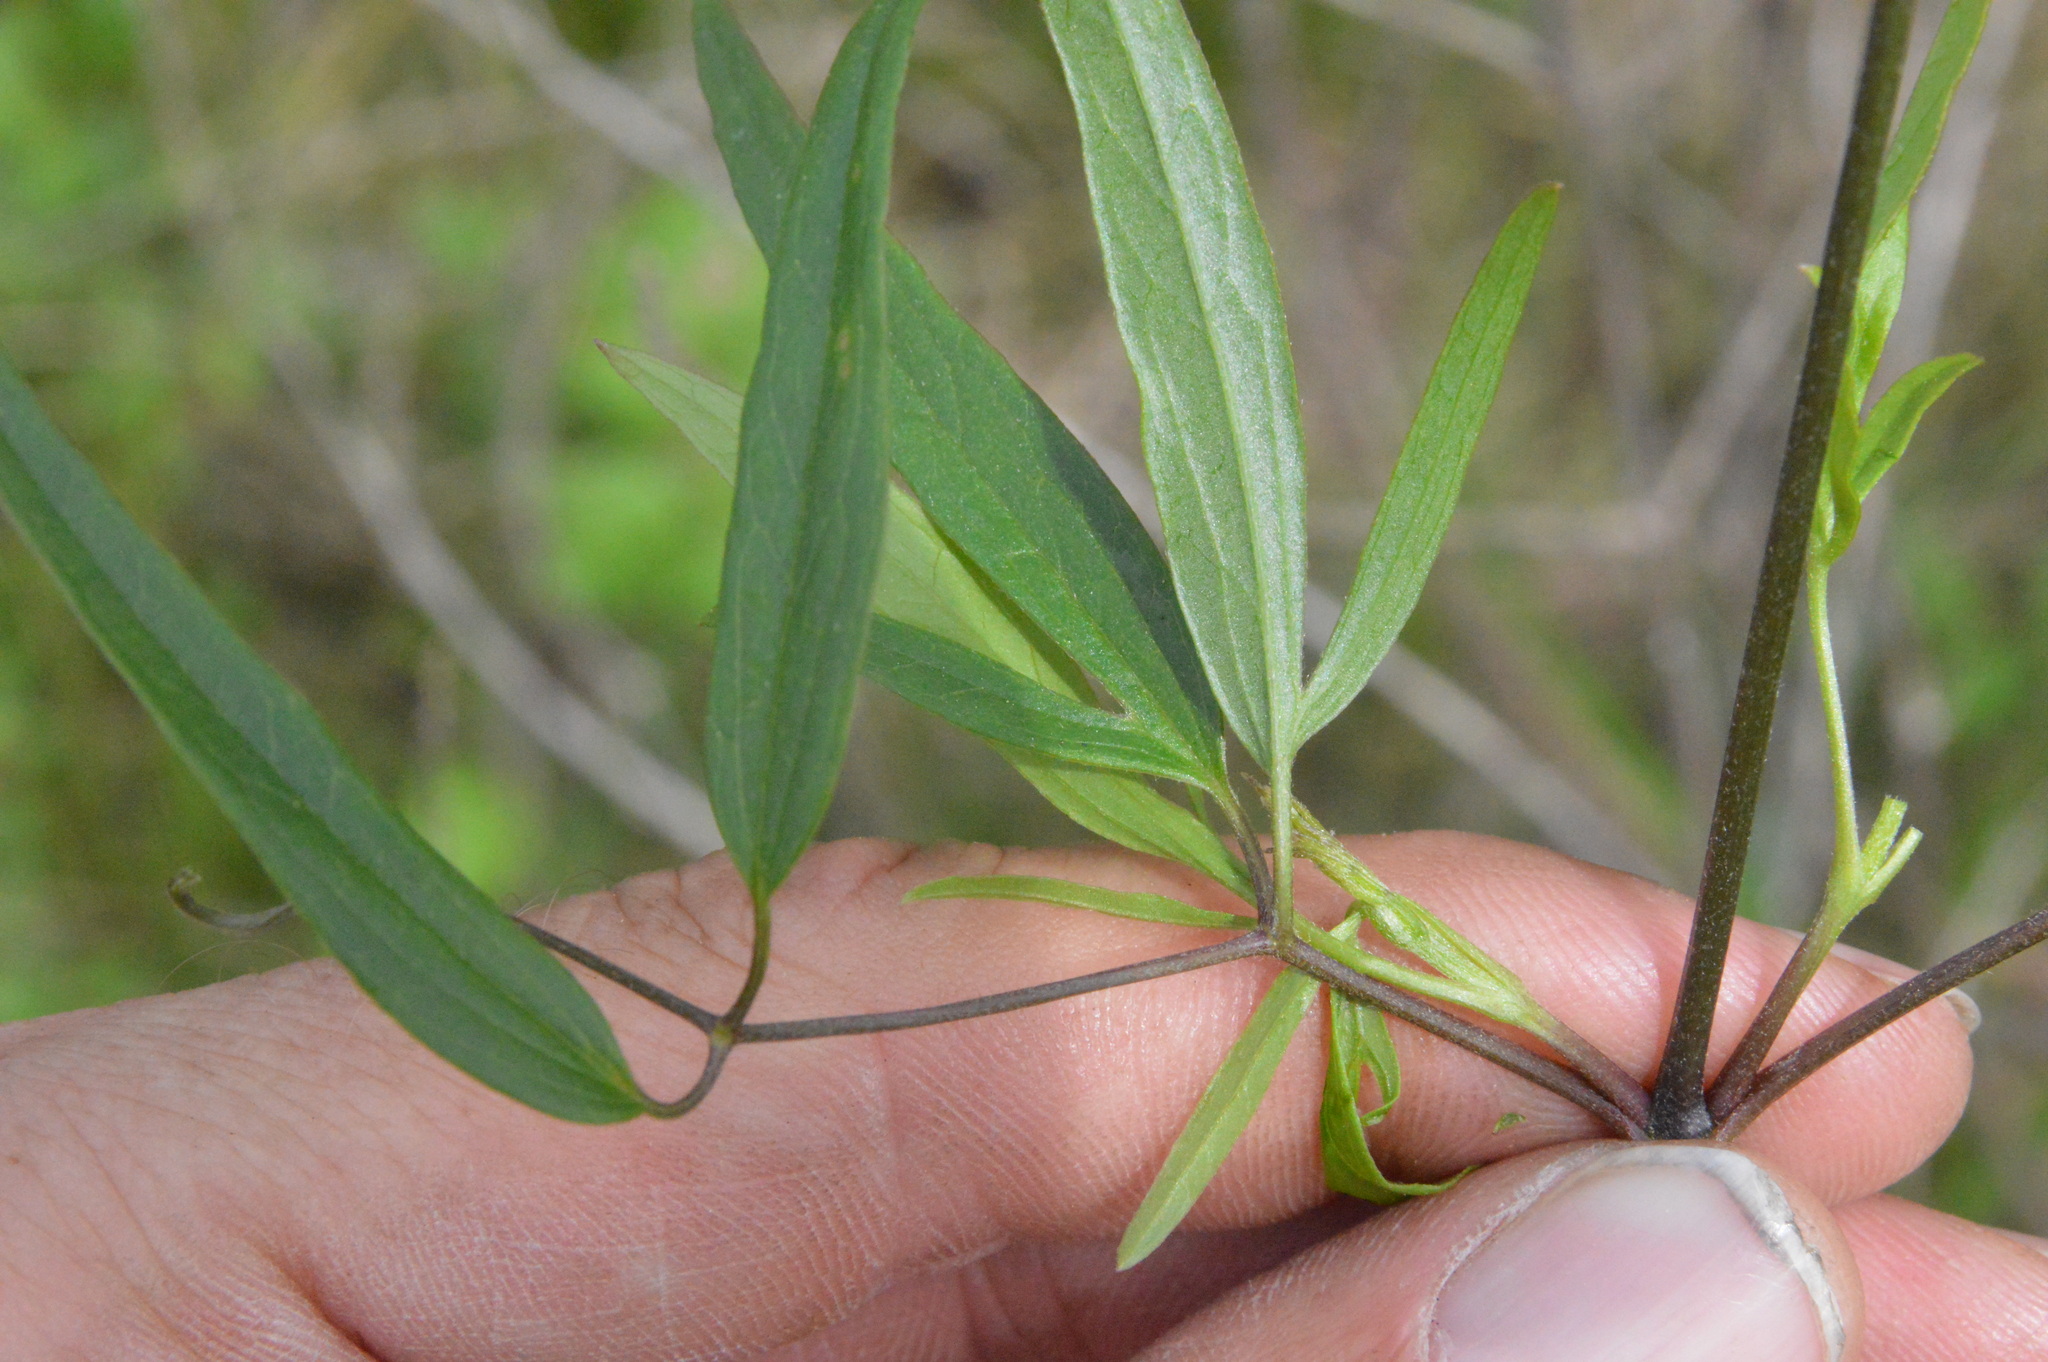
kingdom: Plantae
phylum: Tracheophyta
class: Magnoliopsida
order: Ranunculales
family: Ranunculaceae
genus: Clematis
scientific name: Clematis crispa
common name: Curly clematis
